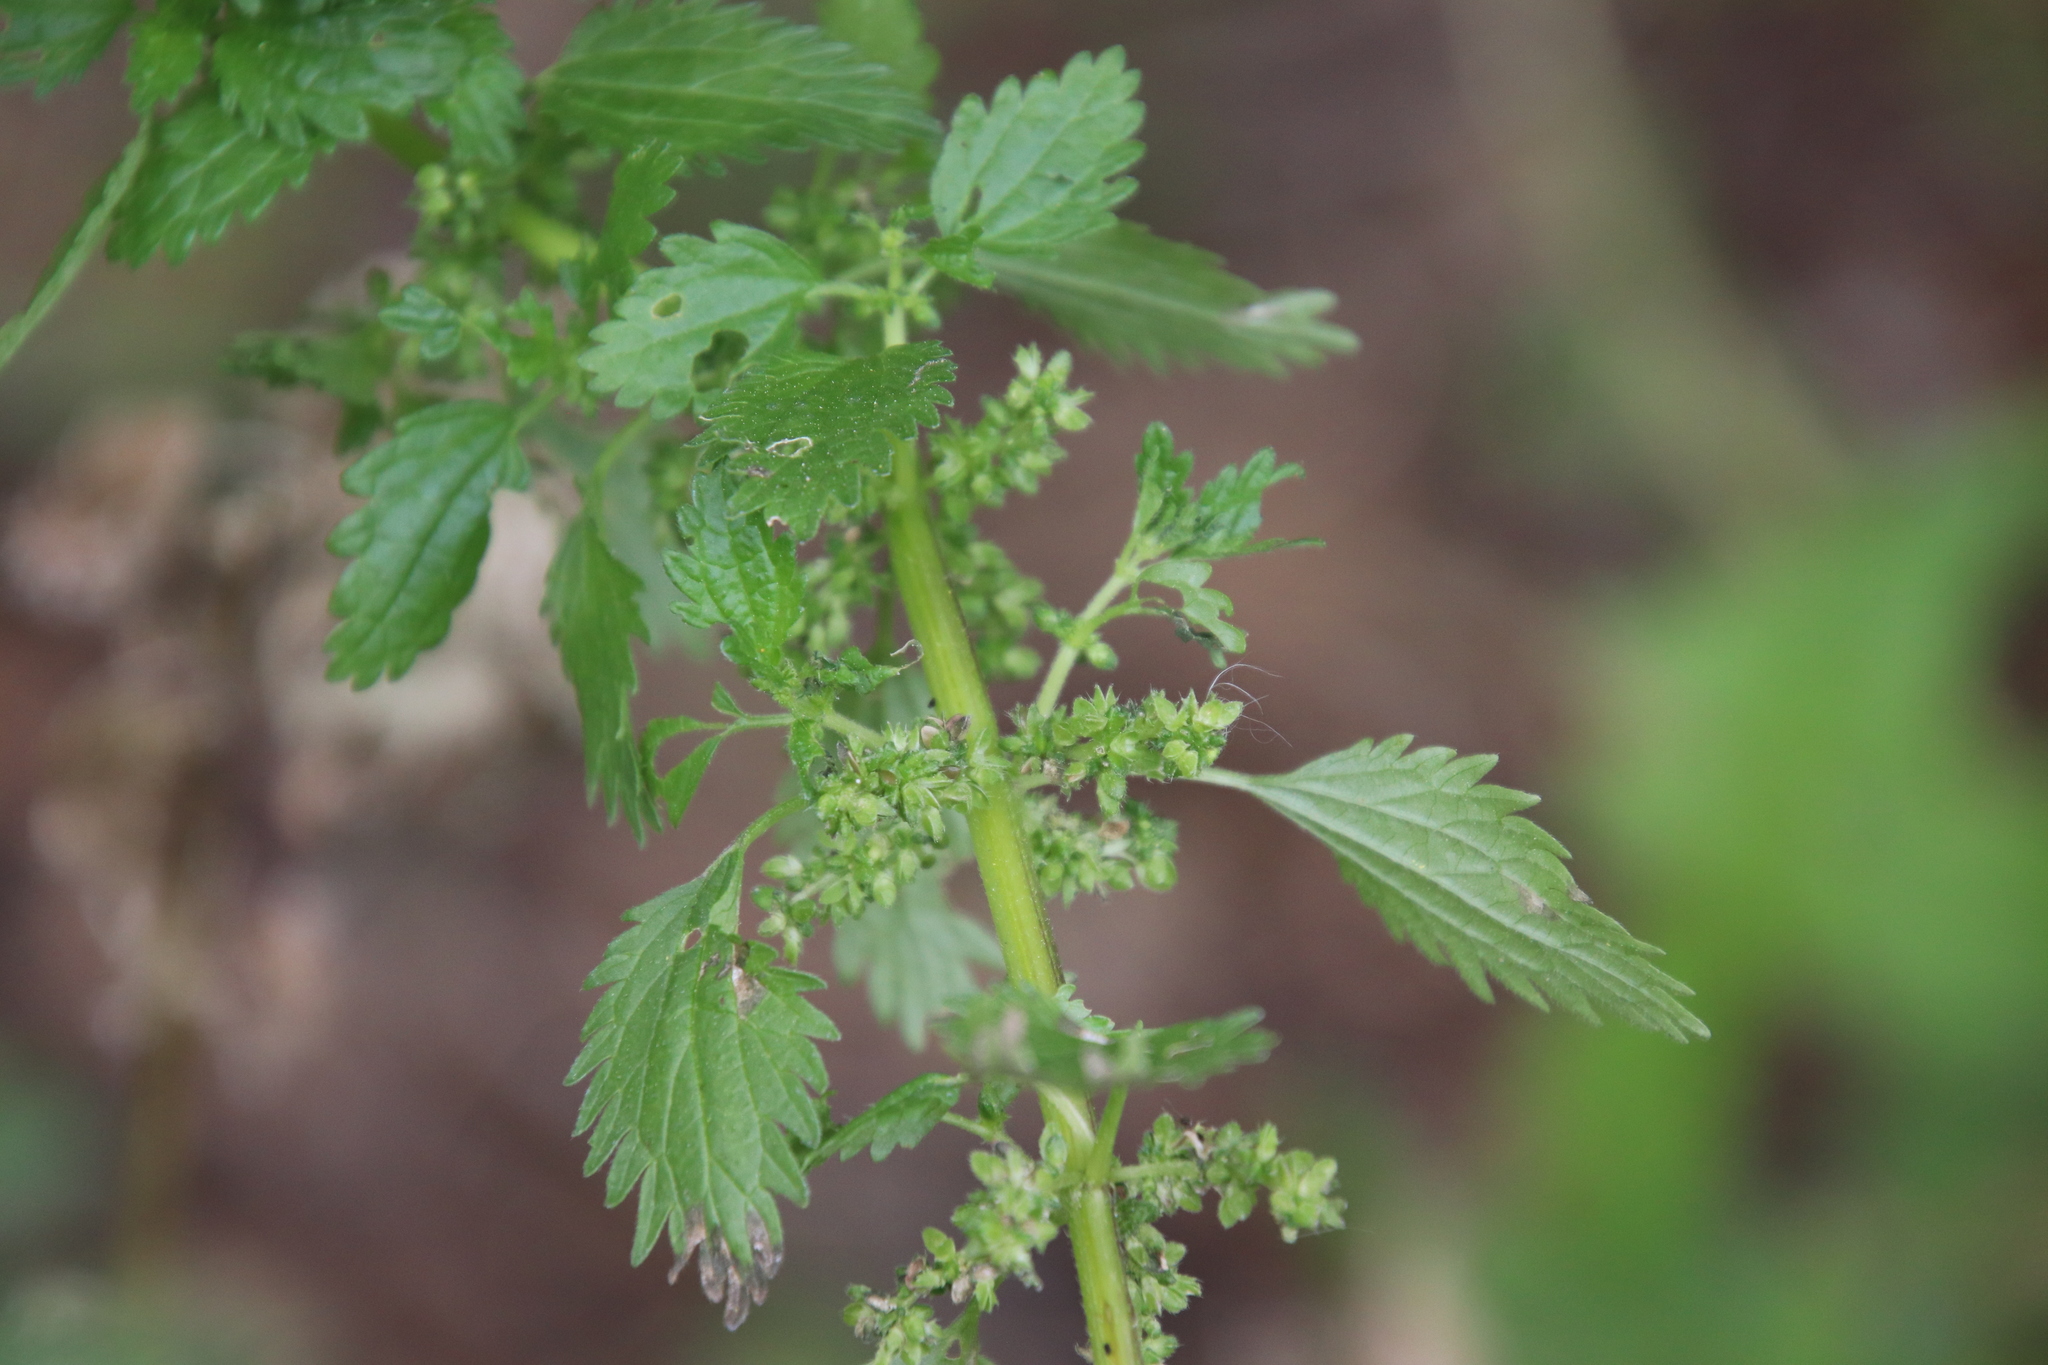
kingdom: Plantae
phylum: Tracheophyta
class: Magnoliopsida
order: Rosales
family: Urticaceae
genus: Urtica
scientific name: Urtica urens
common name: Dwarf nettle
